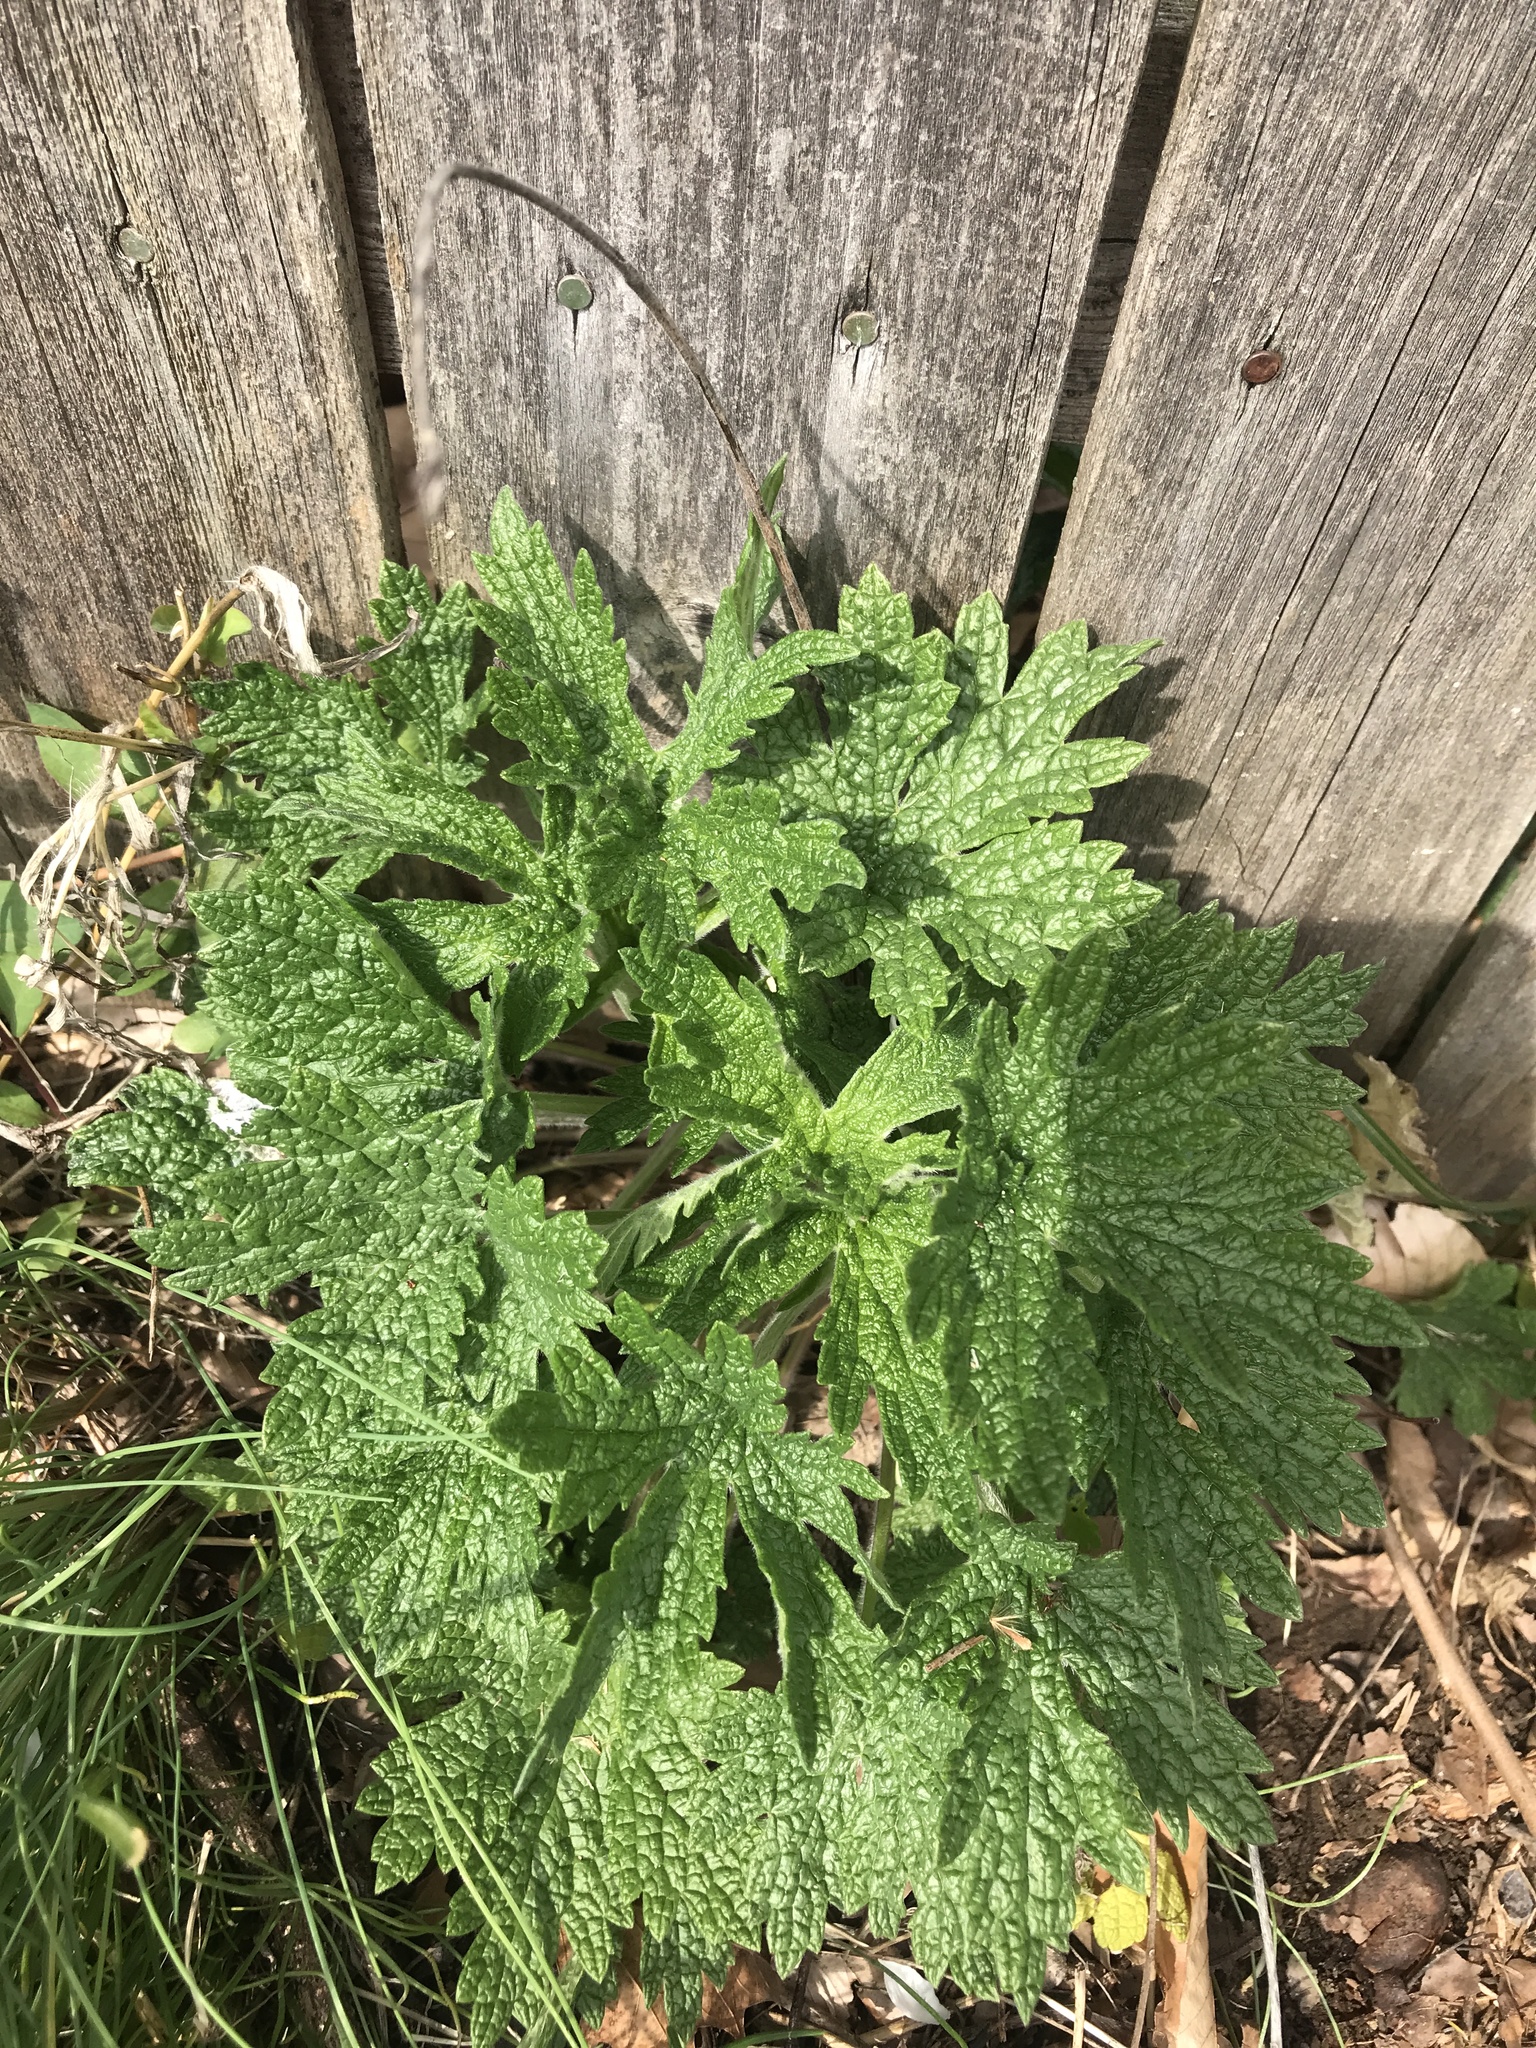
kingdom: Plantae
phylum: Tracheophyta
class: Magnoliopsida
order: Lamiales
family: Lamiaceae
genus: Leonurus
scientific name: Leonurus cardiaca
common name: Motherwort
